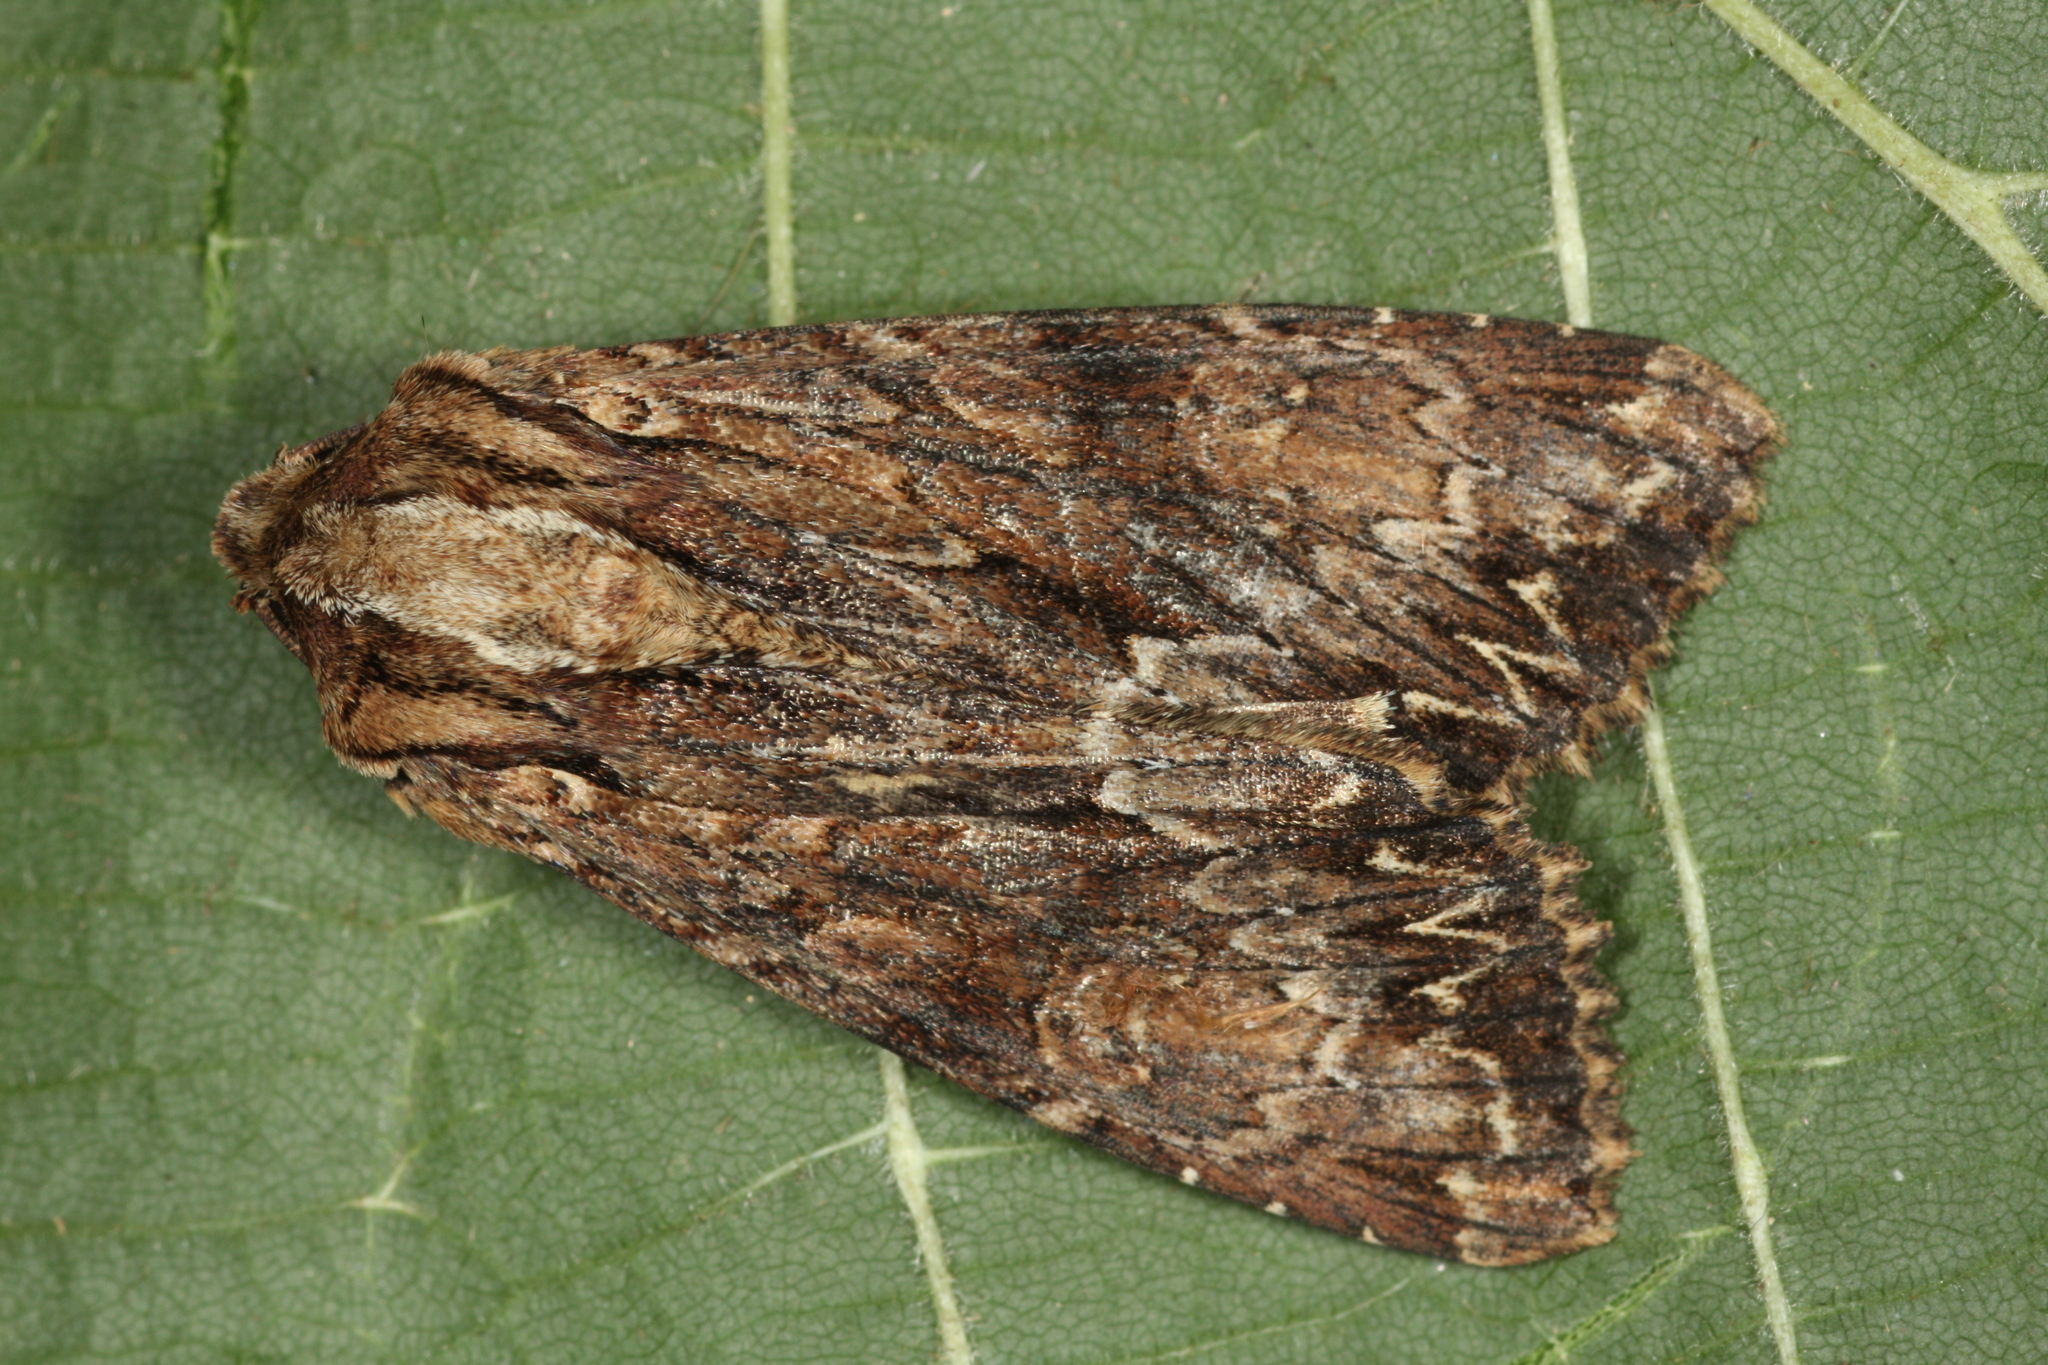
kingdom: Animalia
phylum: Arthropoda
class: Insecta
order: Lepidoptera
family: Noctuidae
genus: Apamea
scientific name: Apamea monoglypha
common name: Dark arches
